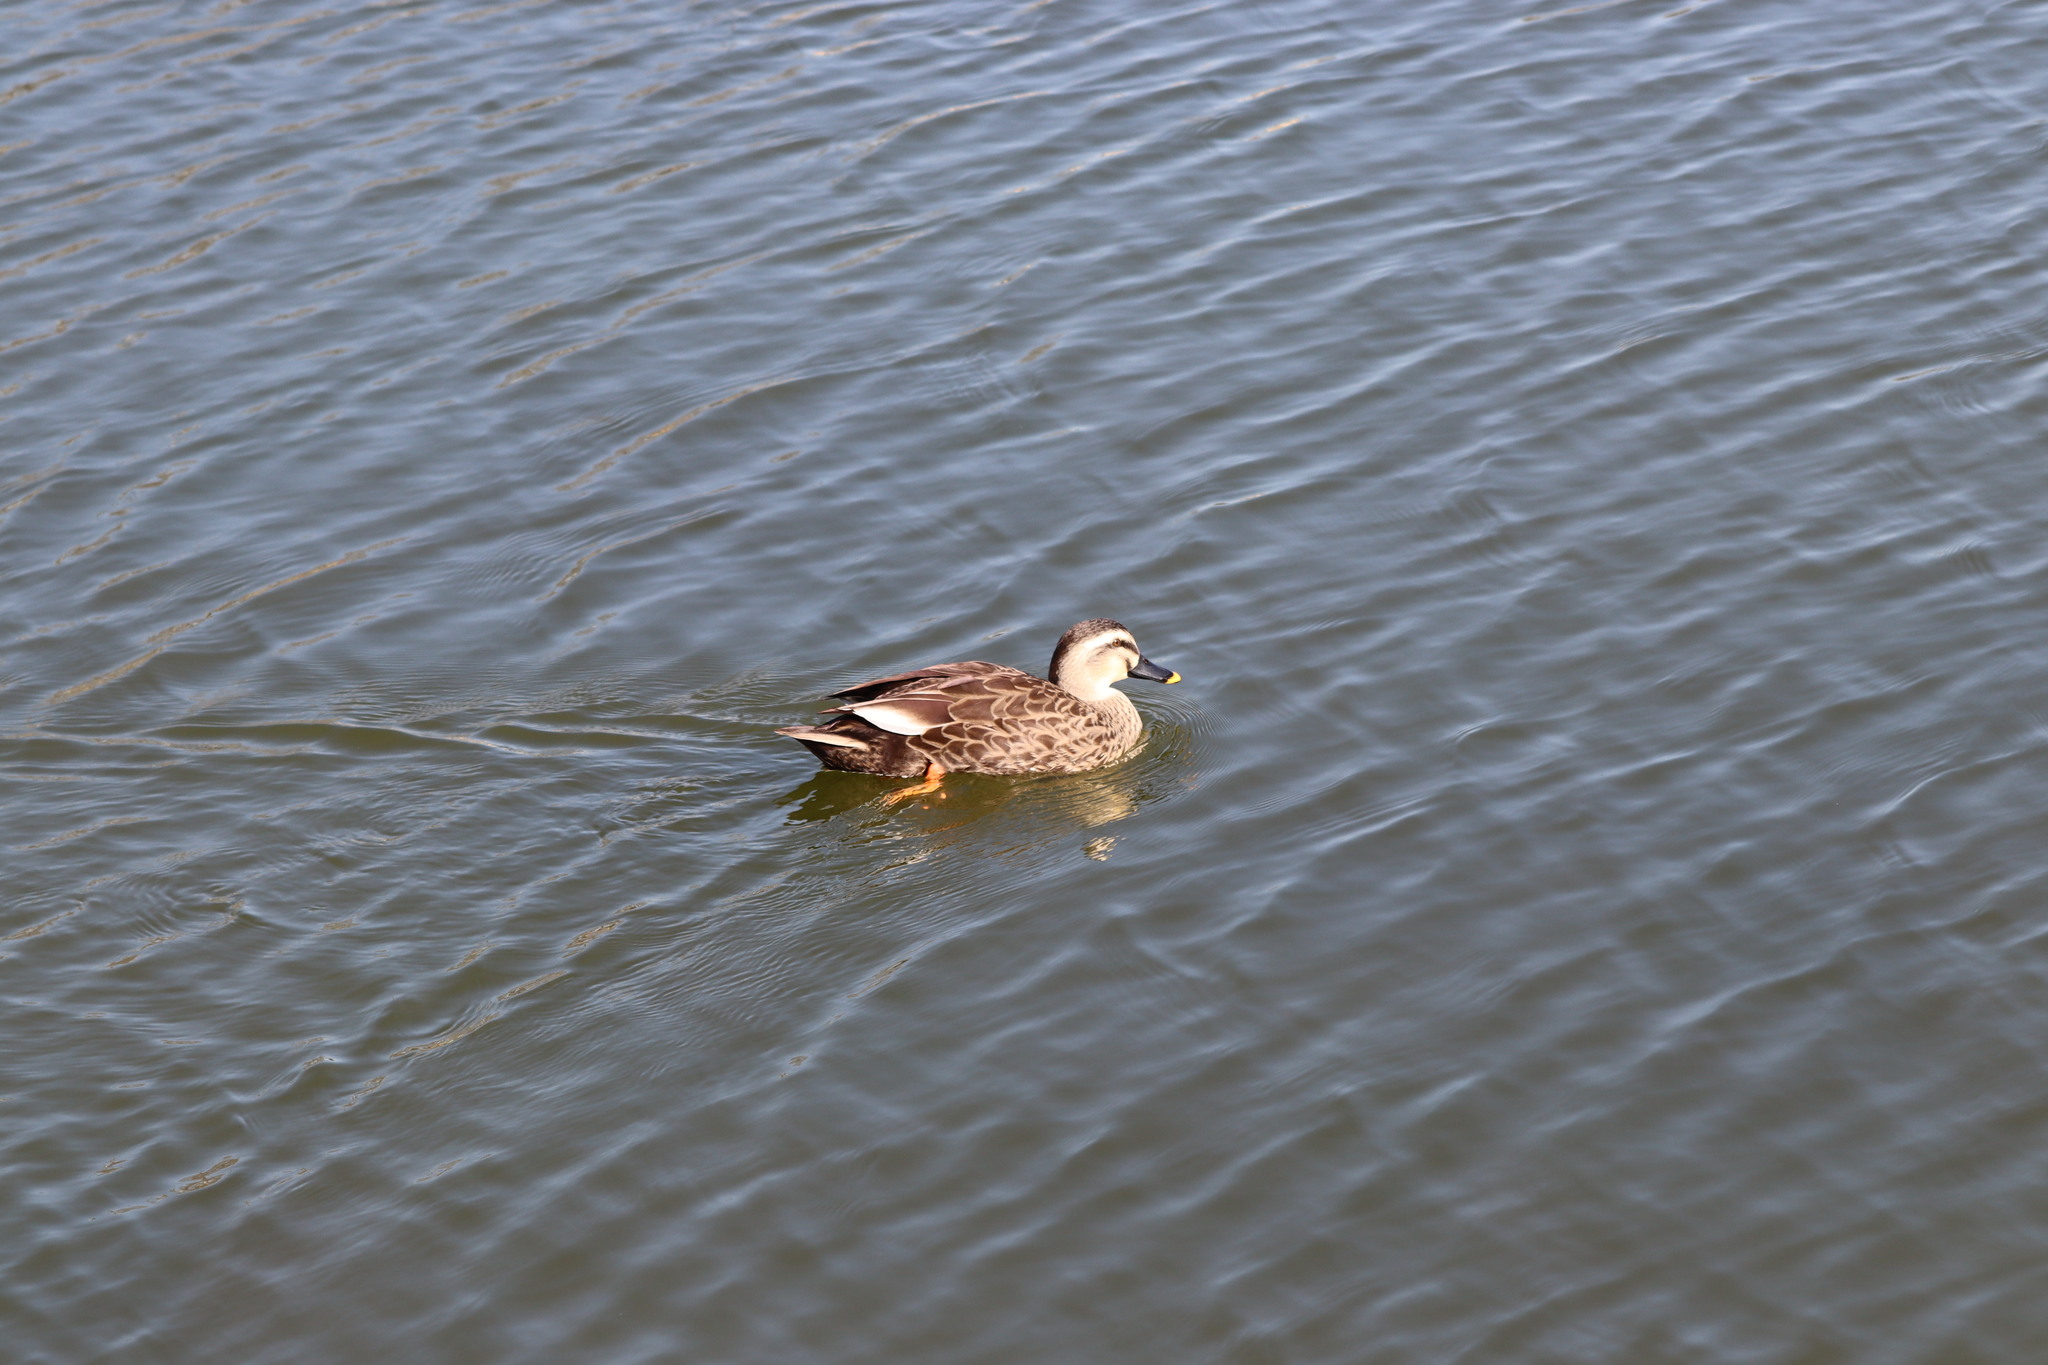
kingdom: Animalia
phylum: Chordata
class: Aves
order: Anseriformes
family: Anatidae
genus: Anas
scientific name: Anas zonorhyncha
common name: Eastern spot-billed duck
